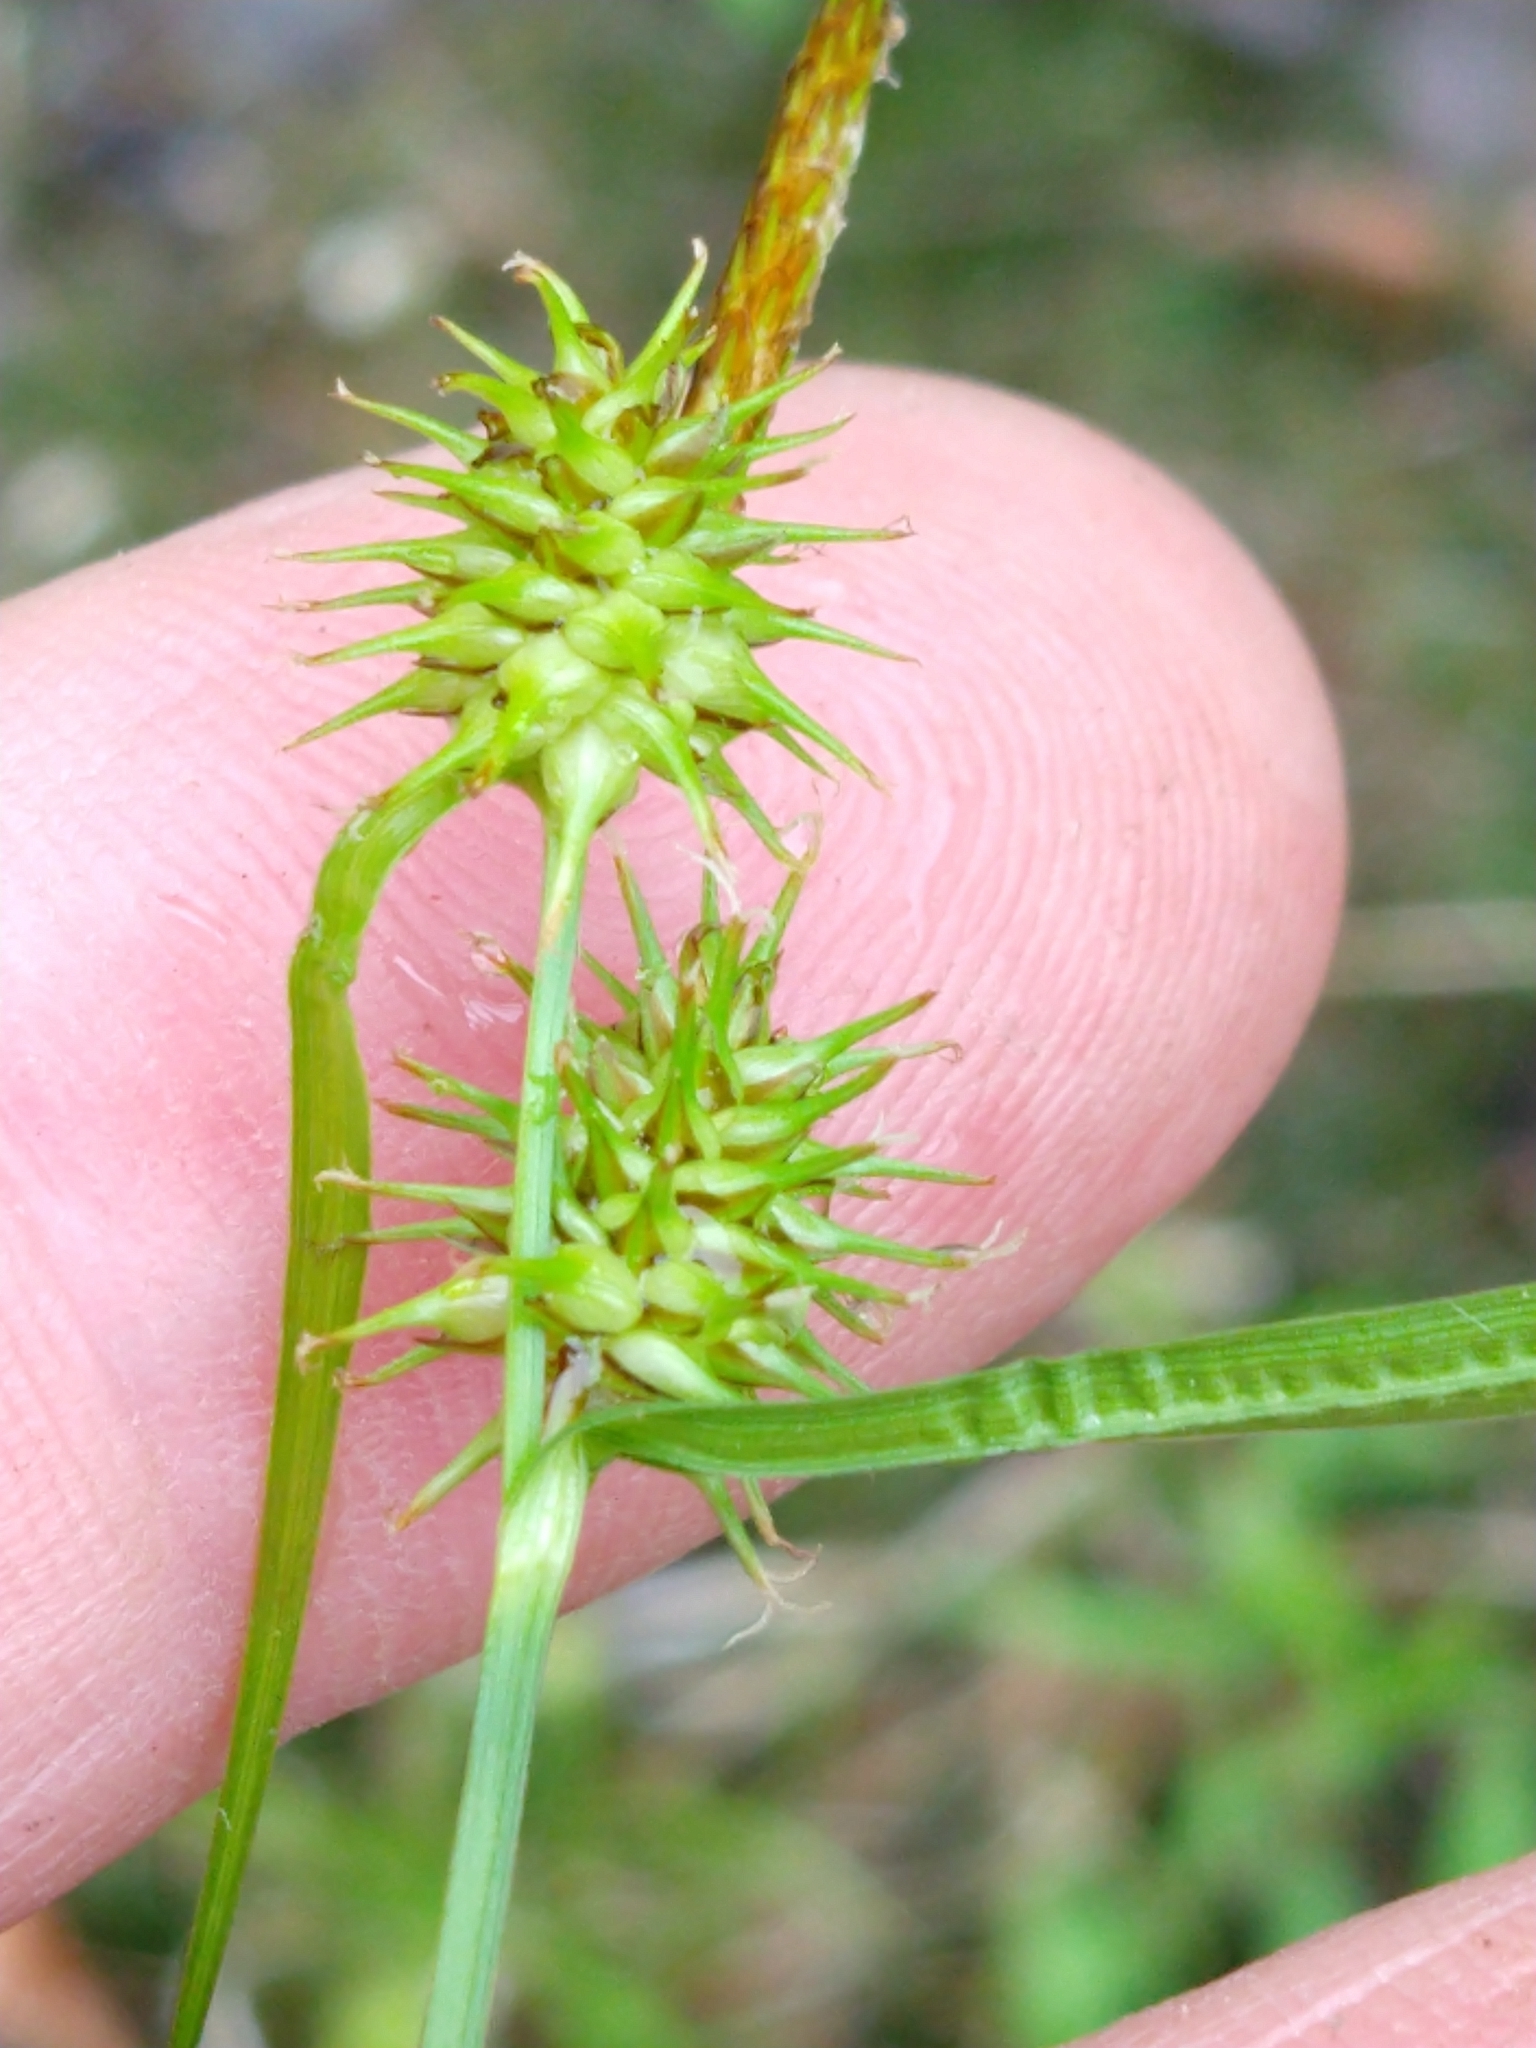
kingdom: Plantae
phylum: Tracheophyta
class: Liliopsida
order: Poales
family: Cyperaceae
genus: Carex
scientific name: Carex flava
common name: Large yellow-sedge
